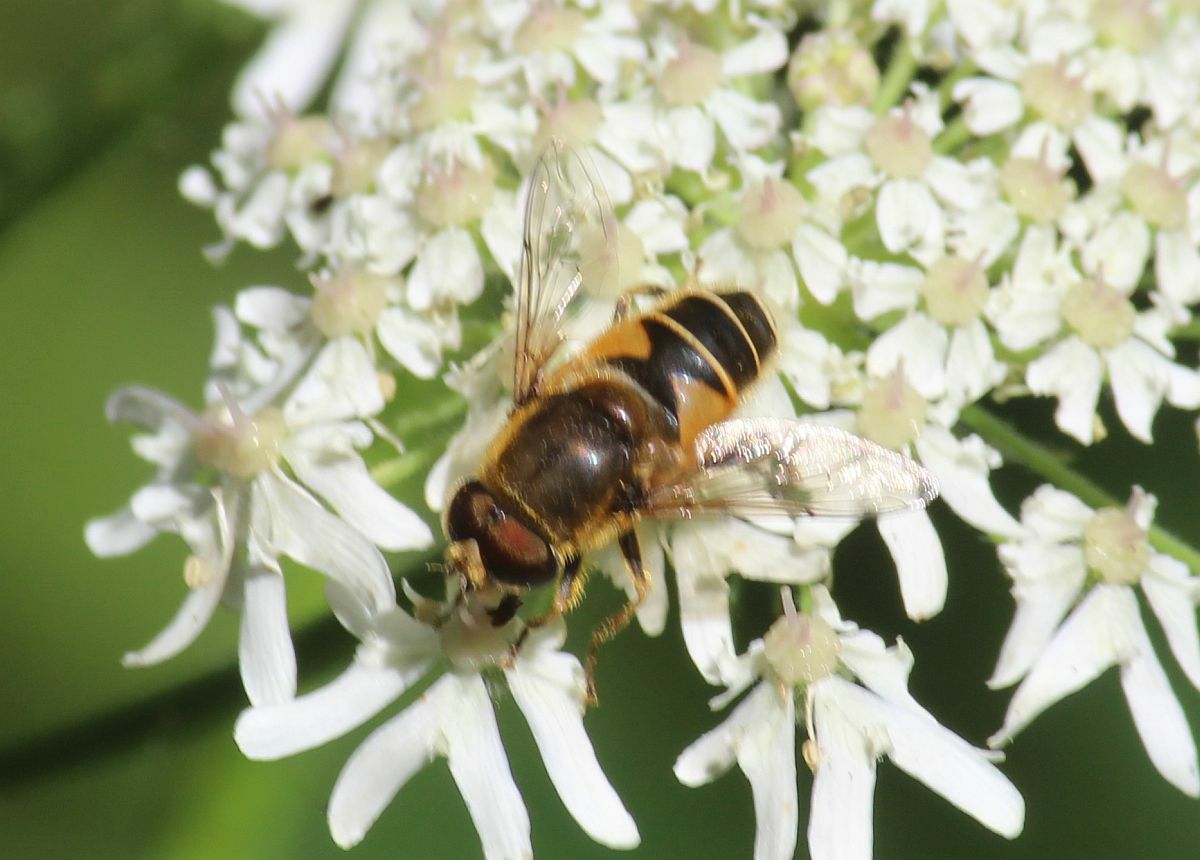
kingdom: Animalia
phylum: Arthropoda
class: Insecta
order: Diptera
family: Syrphidae
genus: Eristalis
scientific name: Eristalis nemorum
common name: Orange-spined drone fly
